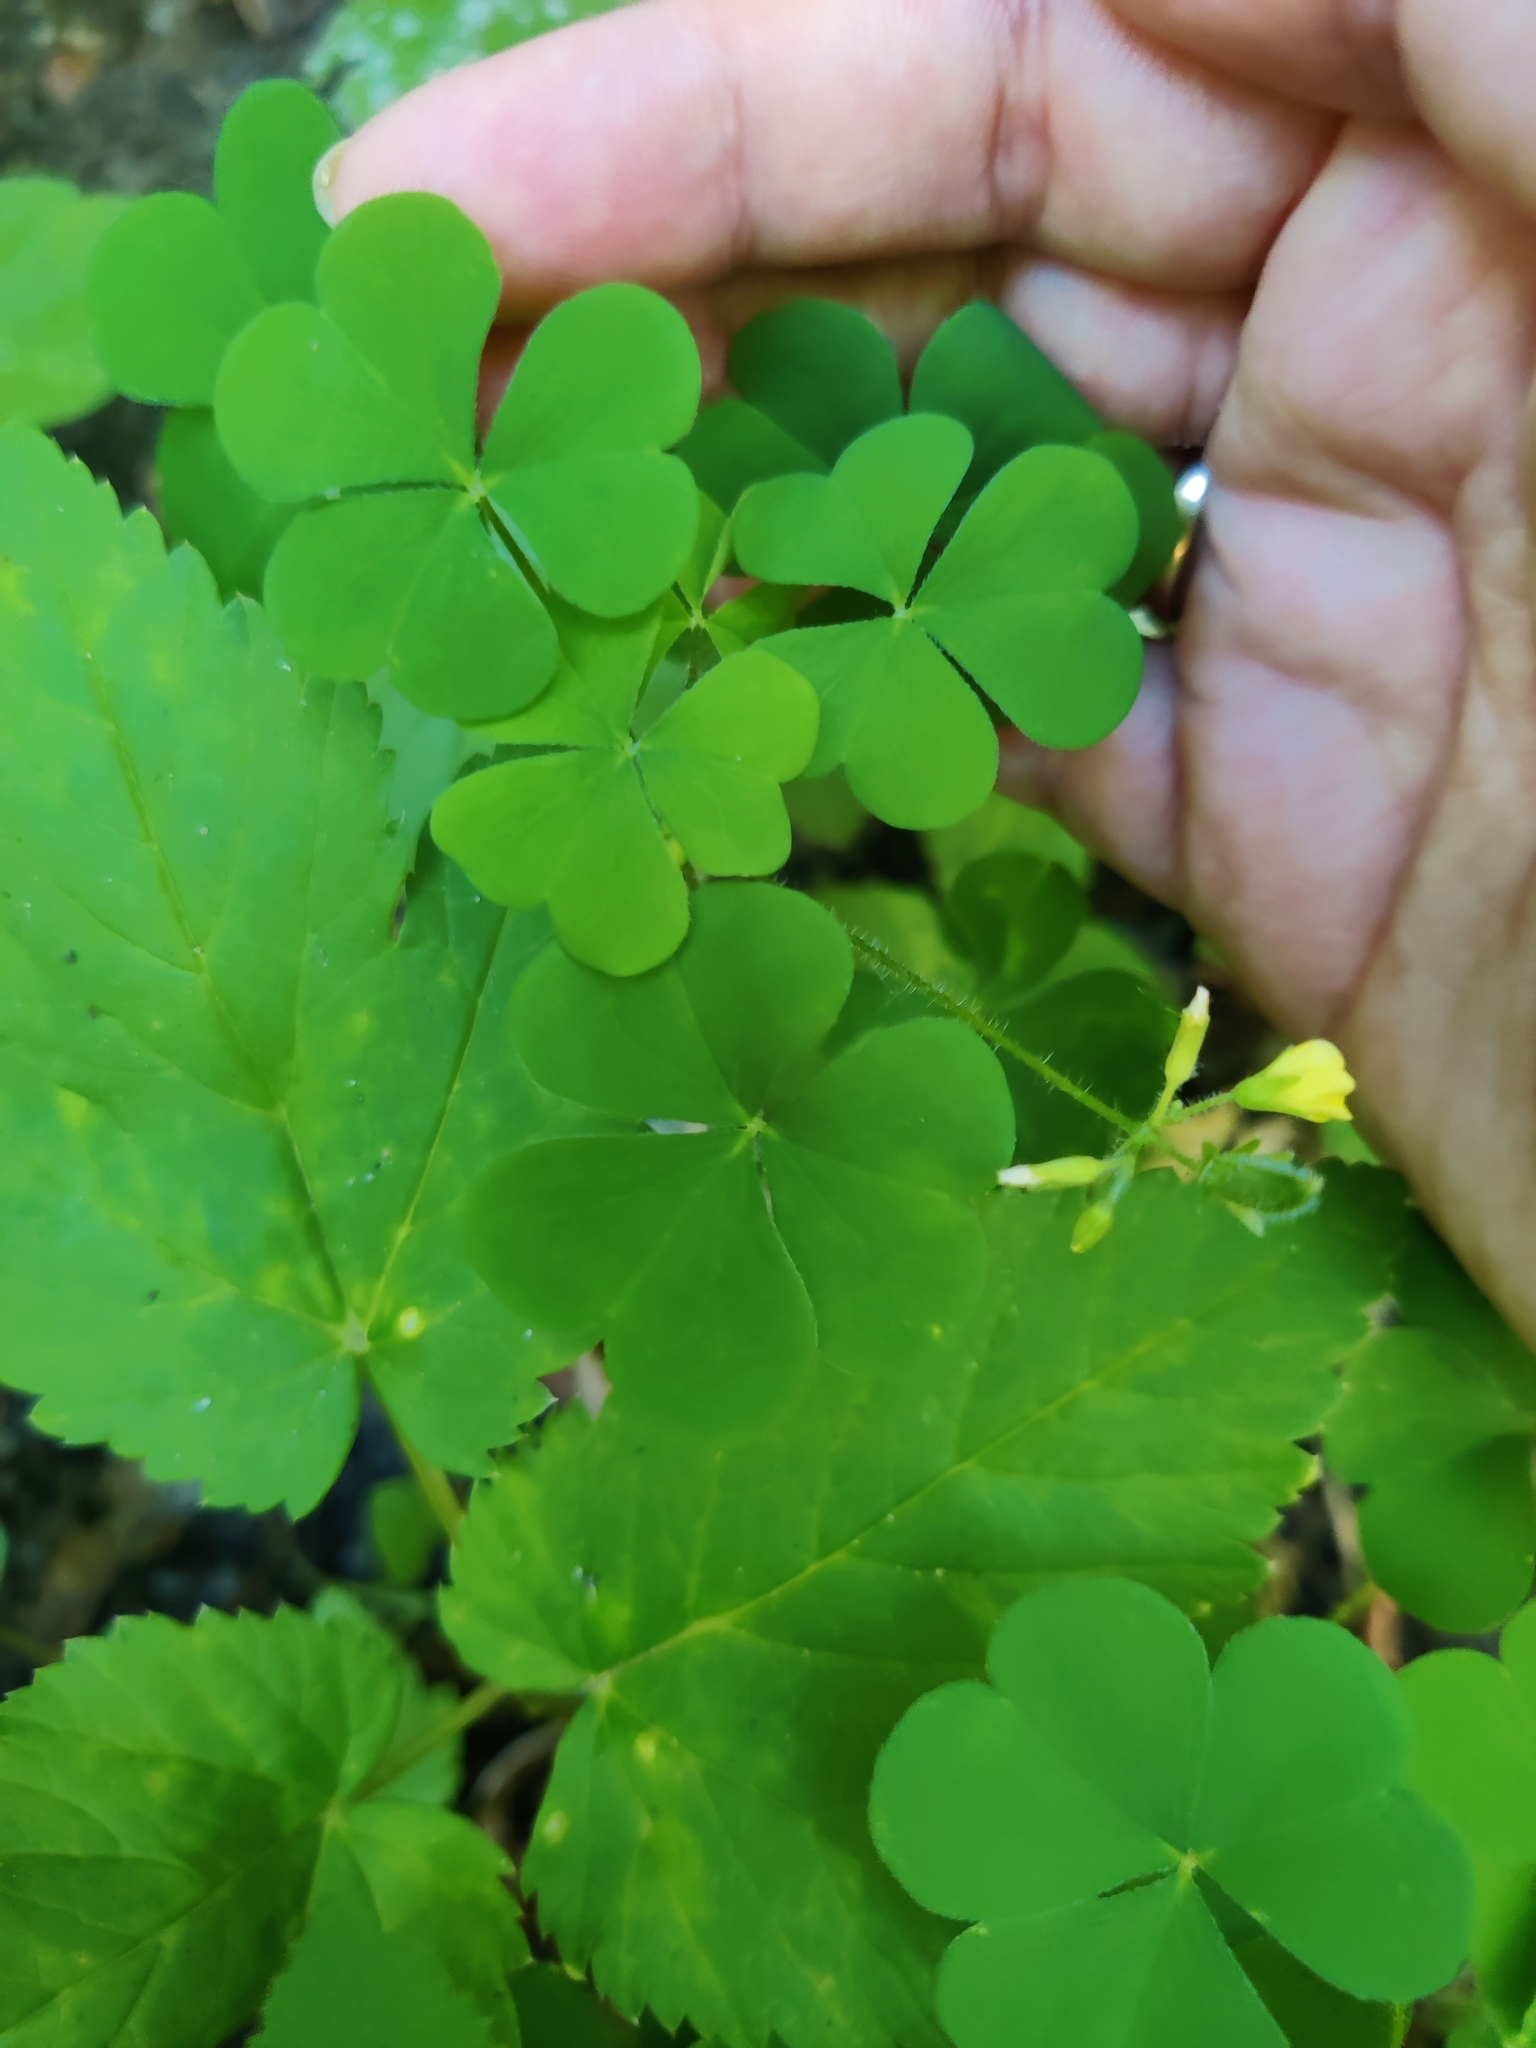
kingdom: Plantae
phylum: Tracheophyta
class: Magnoliopsida
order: Oxalidales
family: Oxalidaceae
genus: Oxalis
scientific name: Oxalis stricta
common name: Upright yellow-sorrel
